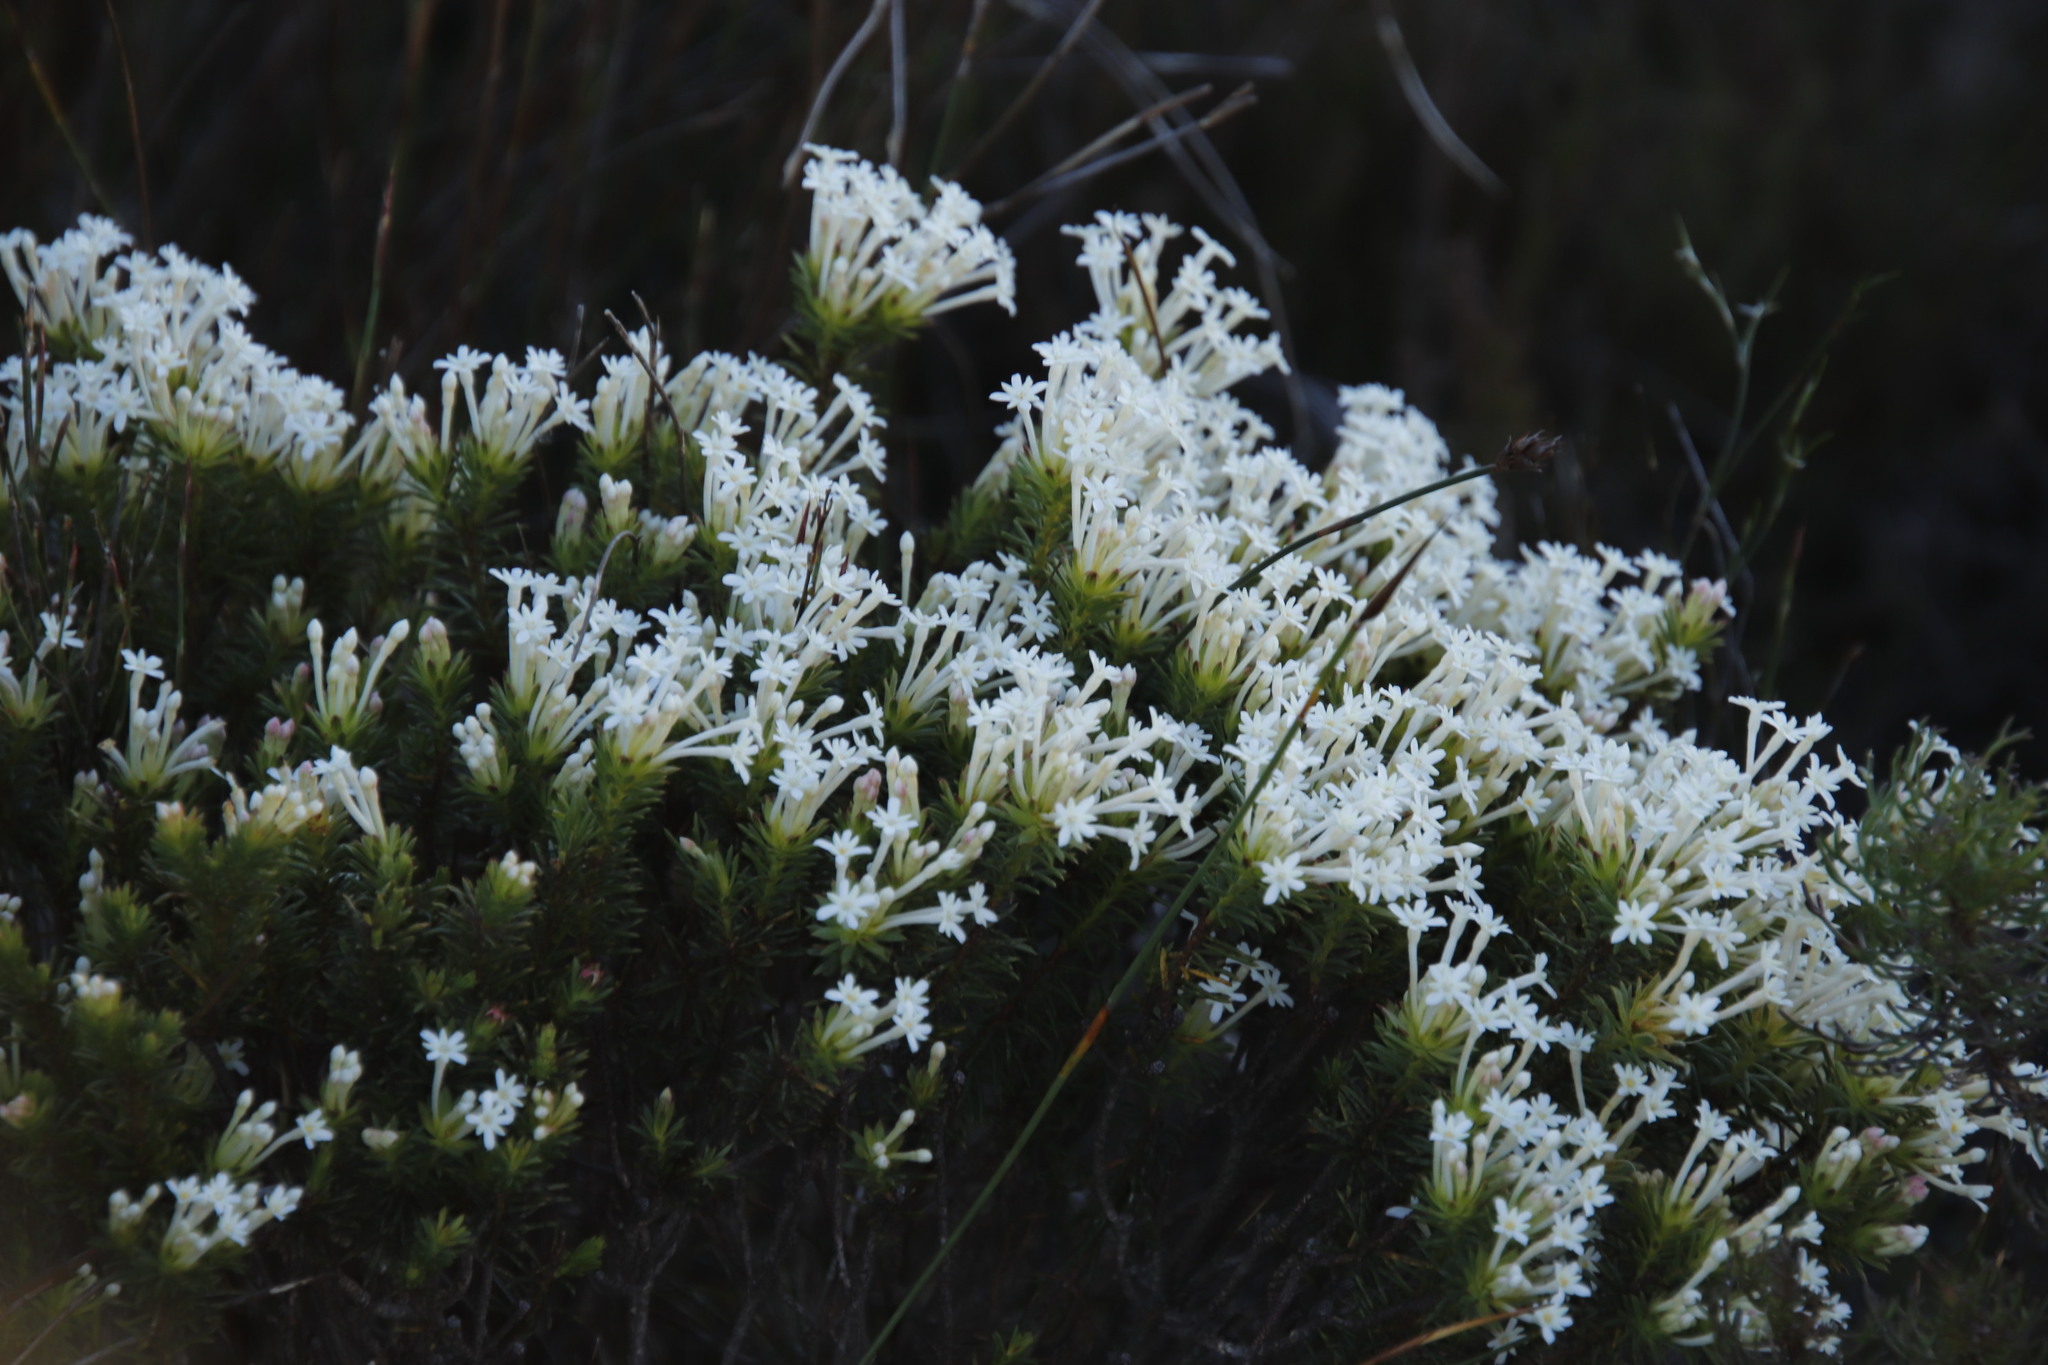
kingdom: Plantae
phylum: Tracheophyta
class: Magnoliopsida
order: Malvales
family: Thymelaeaceae
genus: Gnidia
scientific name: Gnidia pinifolia
